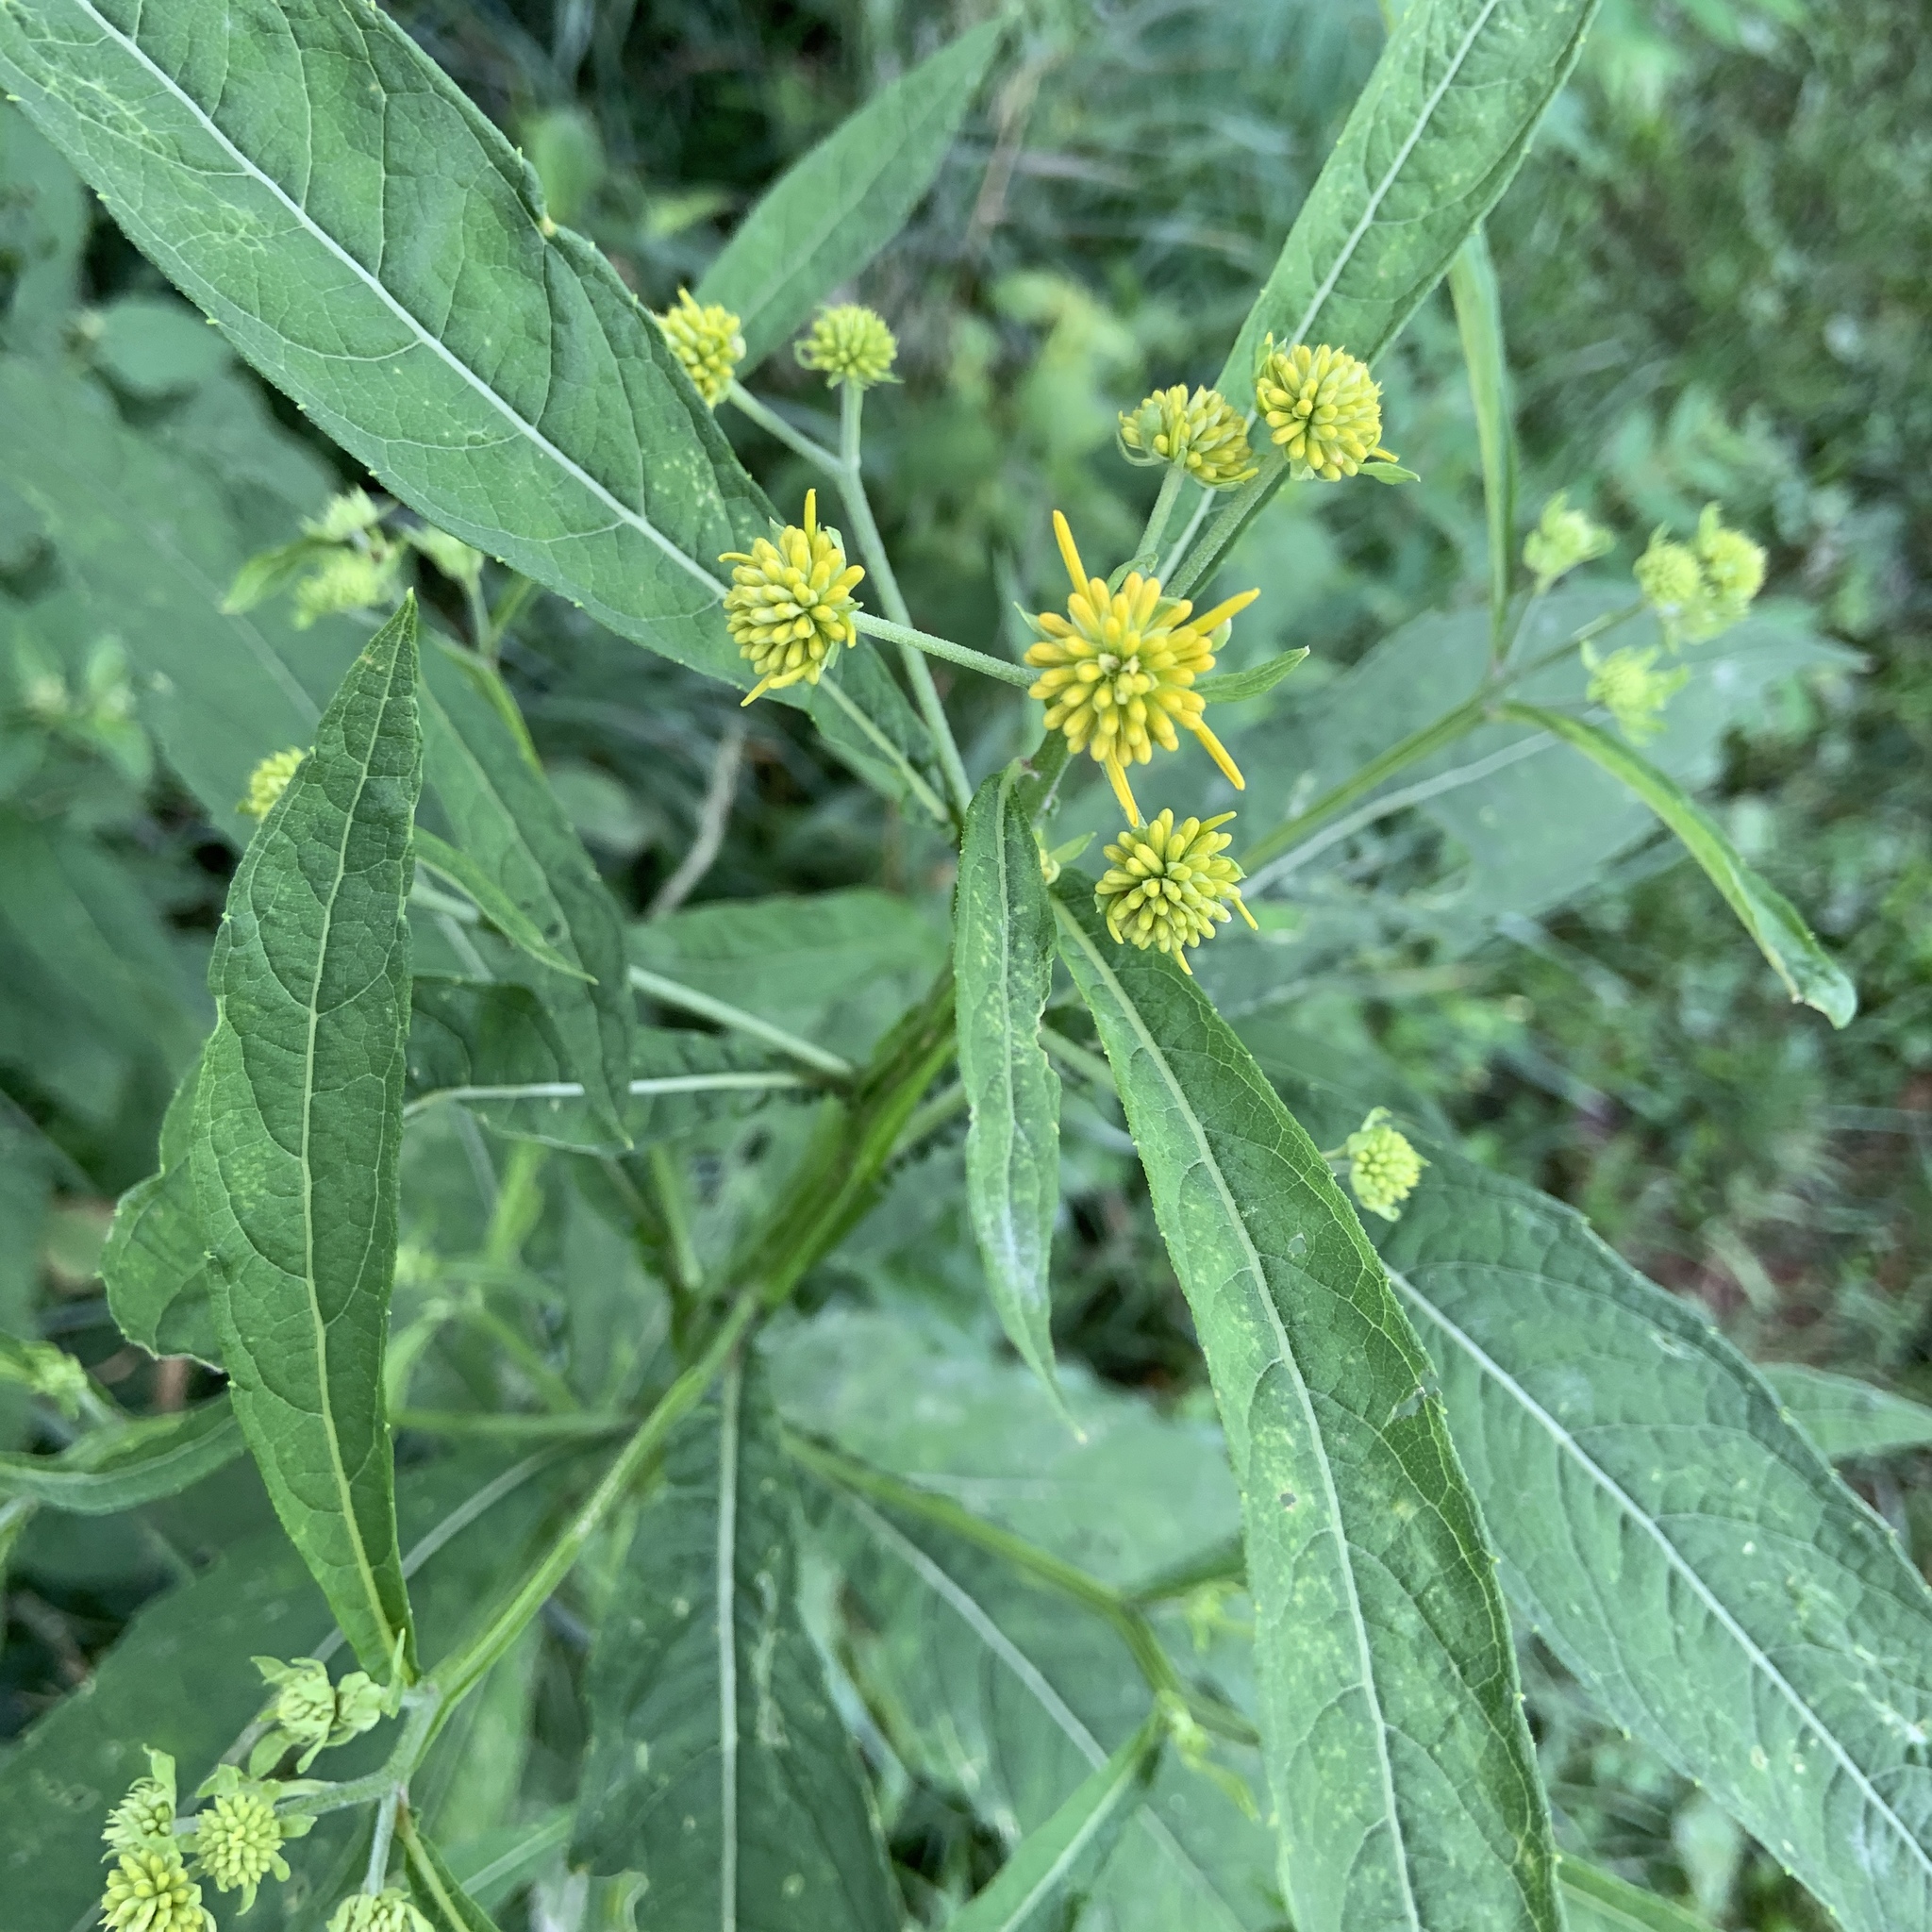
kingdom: Plantae
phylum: Tracheophyta
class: Magnoliopsida
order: Asterales
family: Asteraceae
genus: Verbesina
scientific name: Verbesina alternifolia
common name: Wingstem
